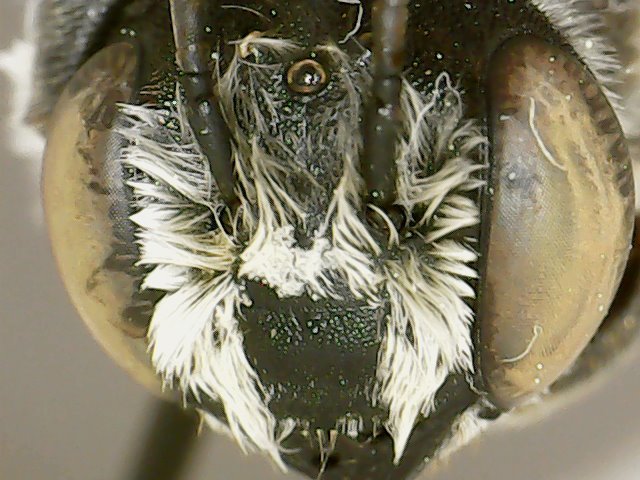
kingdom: Animalia
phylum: Arthropoda
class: Insecta
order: Hymenoptera
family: Megachilidae
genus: Megachile
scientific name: Megachile texana
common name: Texas leafcutter
